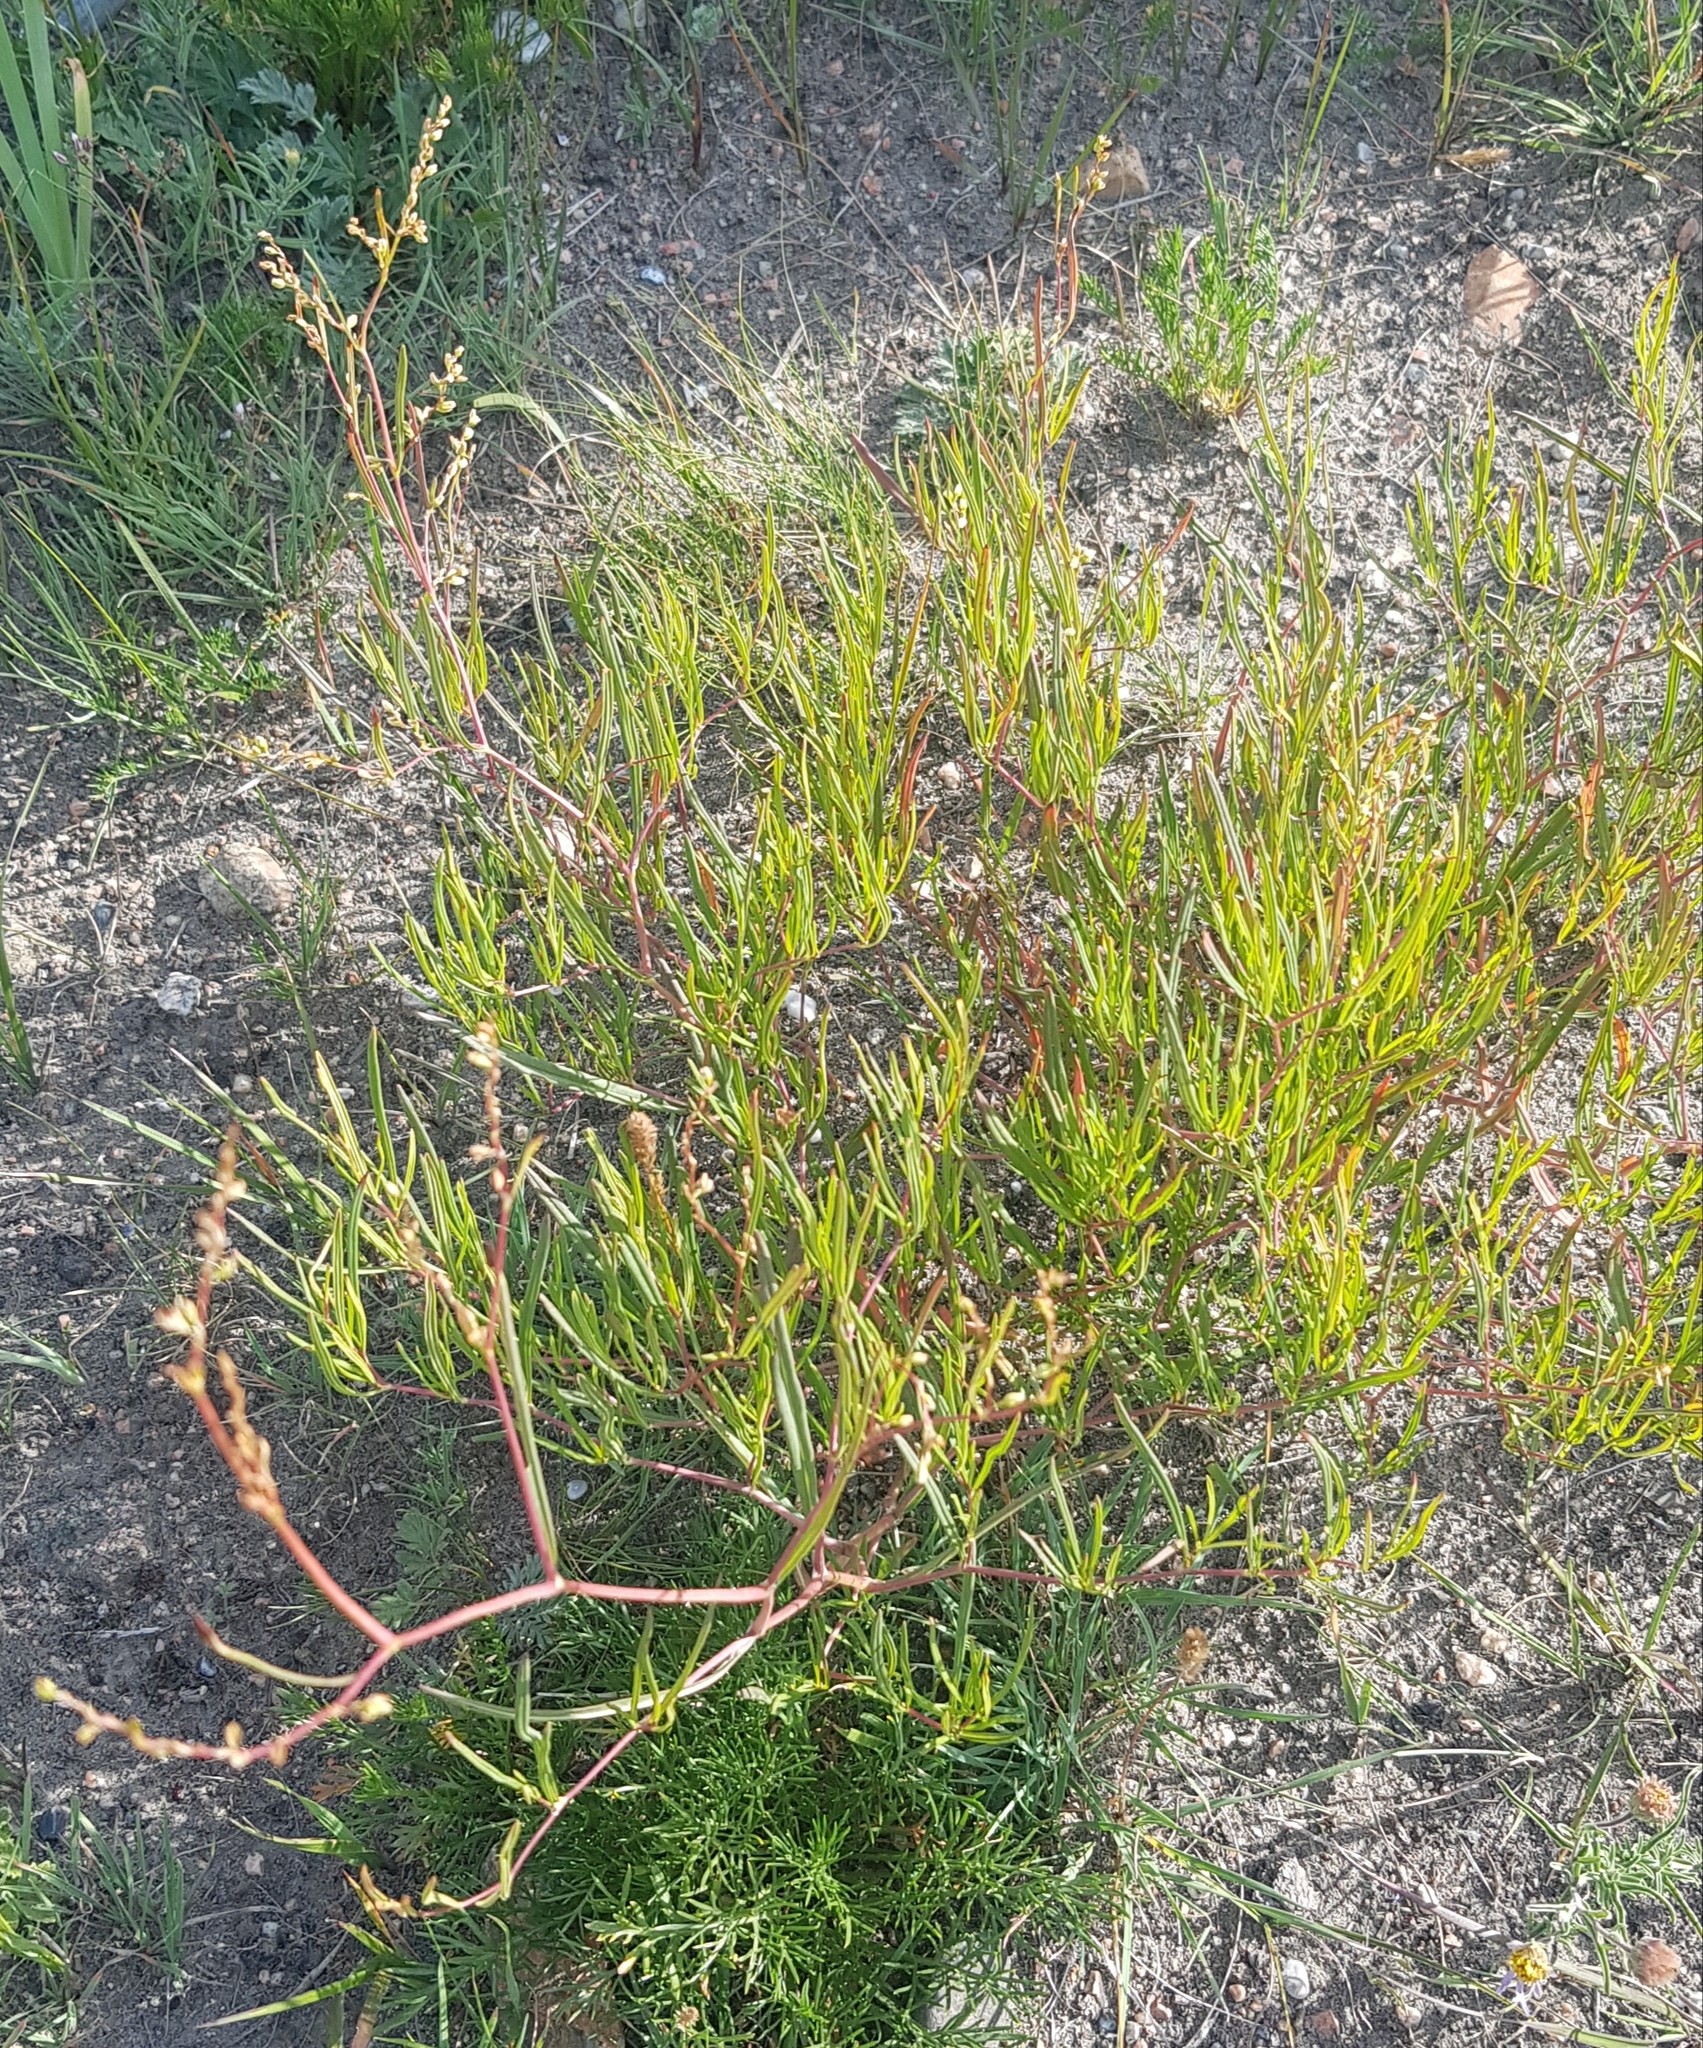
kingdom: Plantae
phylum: Tracheophyta
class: Magnoliopsida
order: Caryophyllales
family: Polygonaceae
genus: Persicaria
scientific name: Persicaria angustifolia
